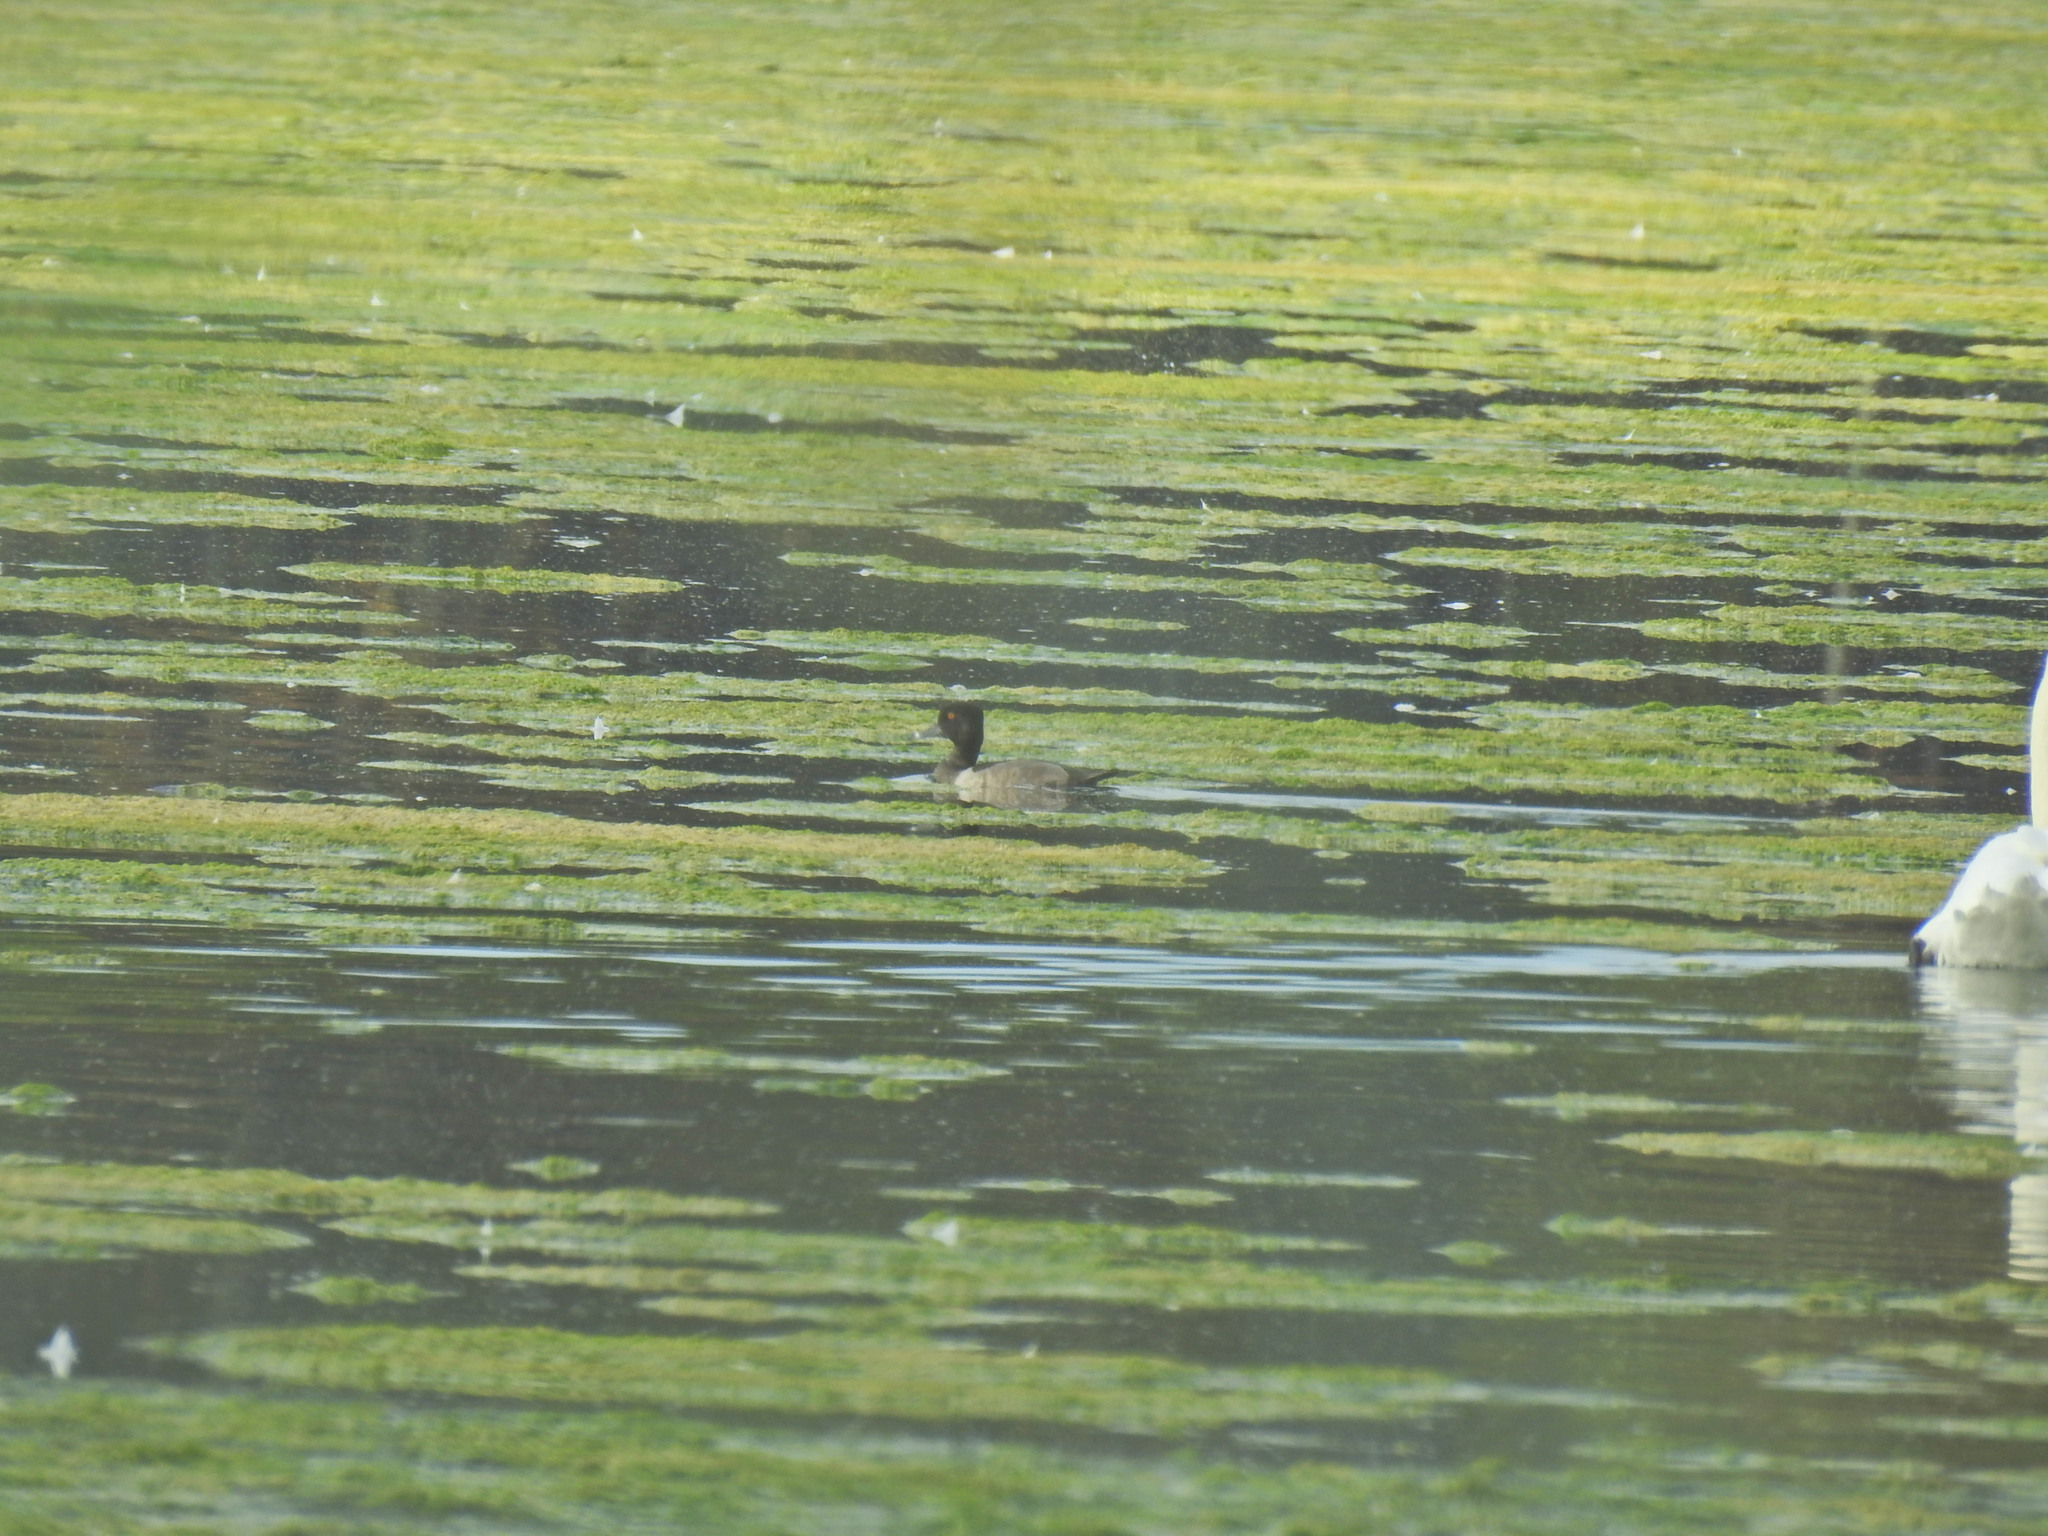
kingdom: Animalia
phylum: Chordata
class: Aves
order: Anseriformes
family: Anatidae
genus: Aythya
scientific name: Aythya collaris
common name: Ring-necked duck
